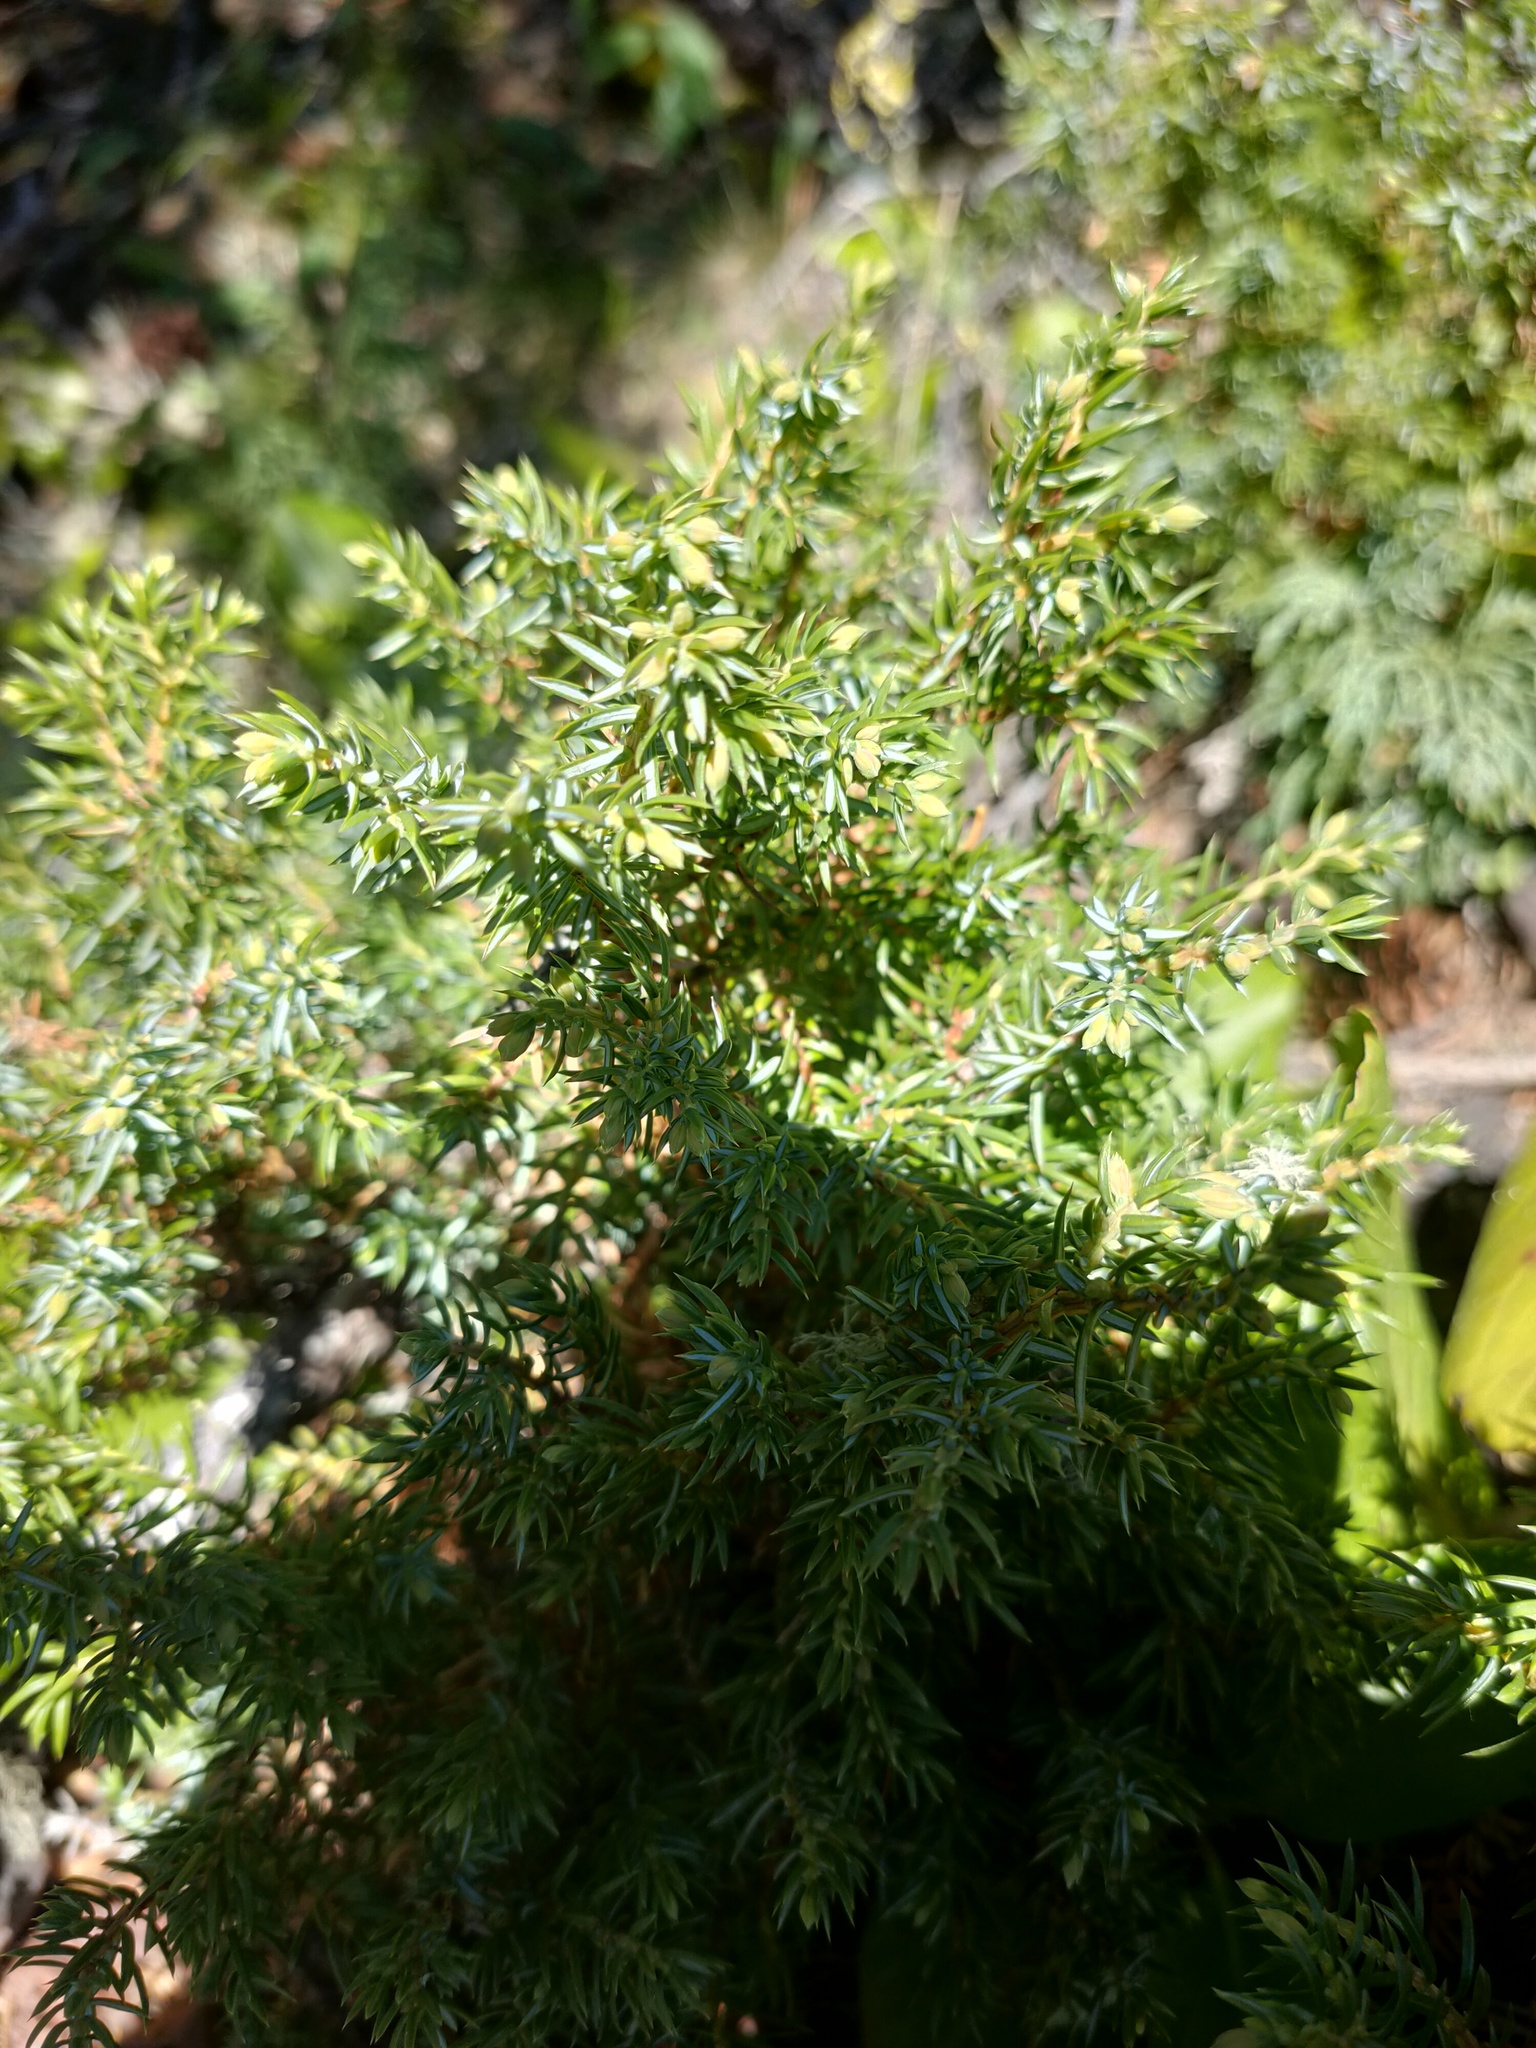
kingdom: Plantae
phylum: Tracheophyta
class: Pinopsida
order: Pinales
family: Cupressaceae
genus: Juniperus
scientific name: Juniperus communis
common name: Common juniper
